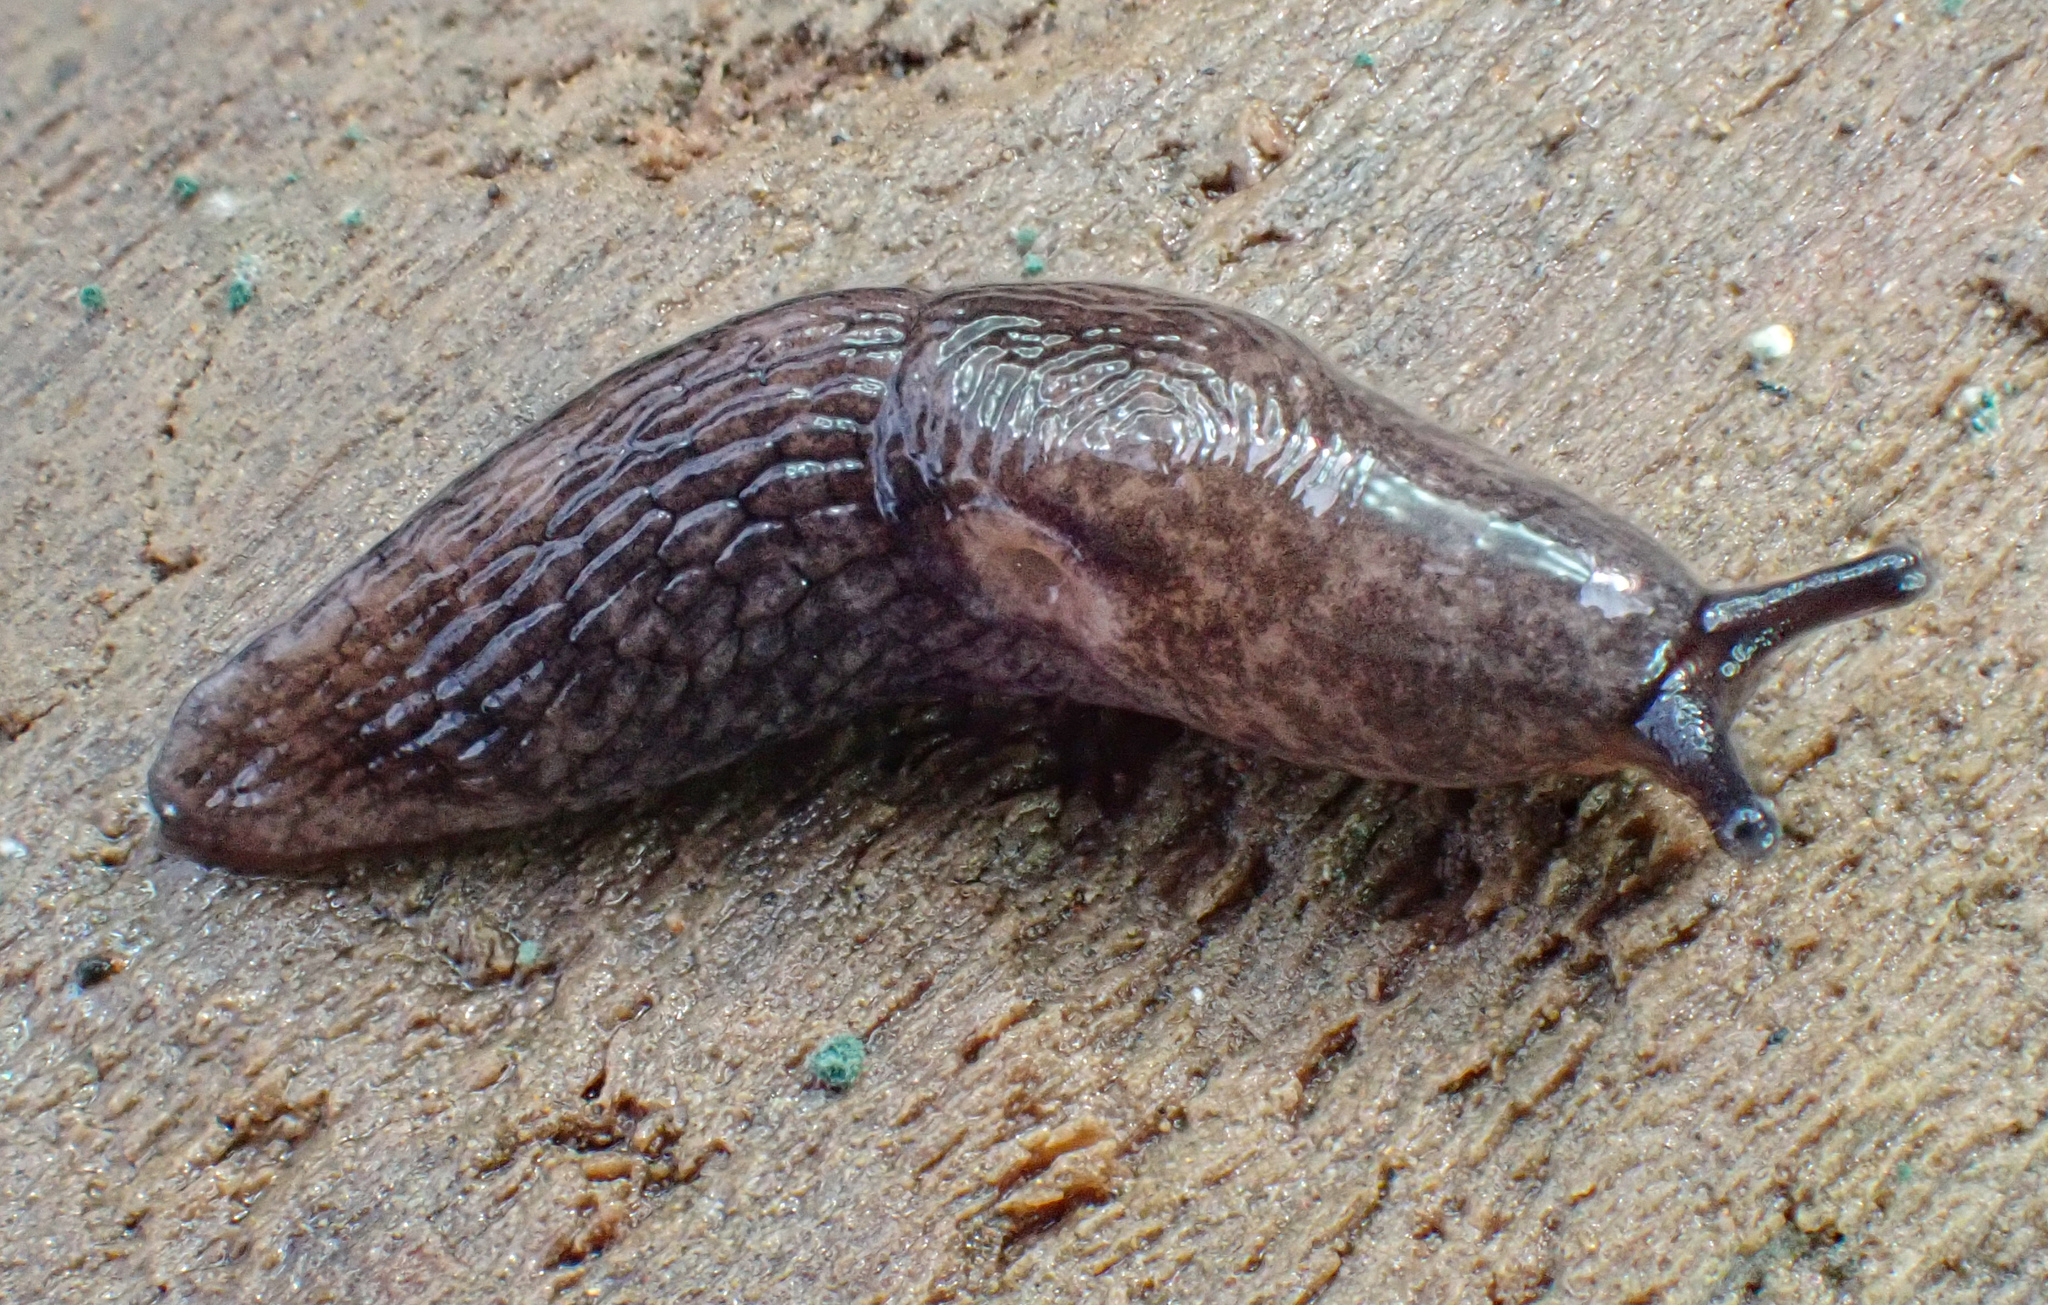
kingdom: Animalia
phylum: Mollusca
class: Gastropoda
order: Stylommatophora
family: Agriolimacidae
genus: Deroceras
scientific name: Deroceras reticulatum
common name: Gray field slug
